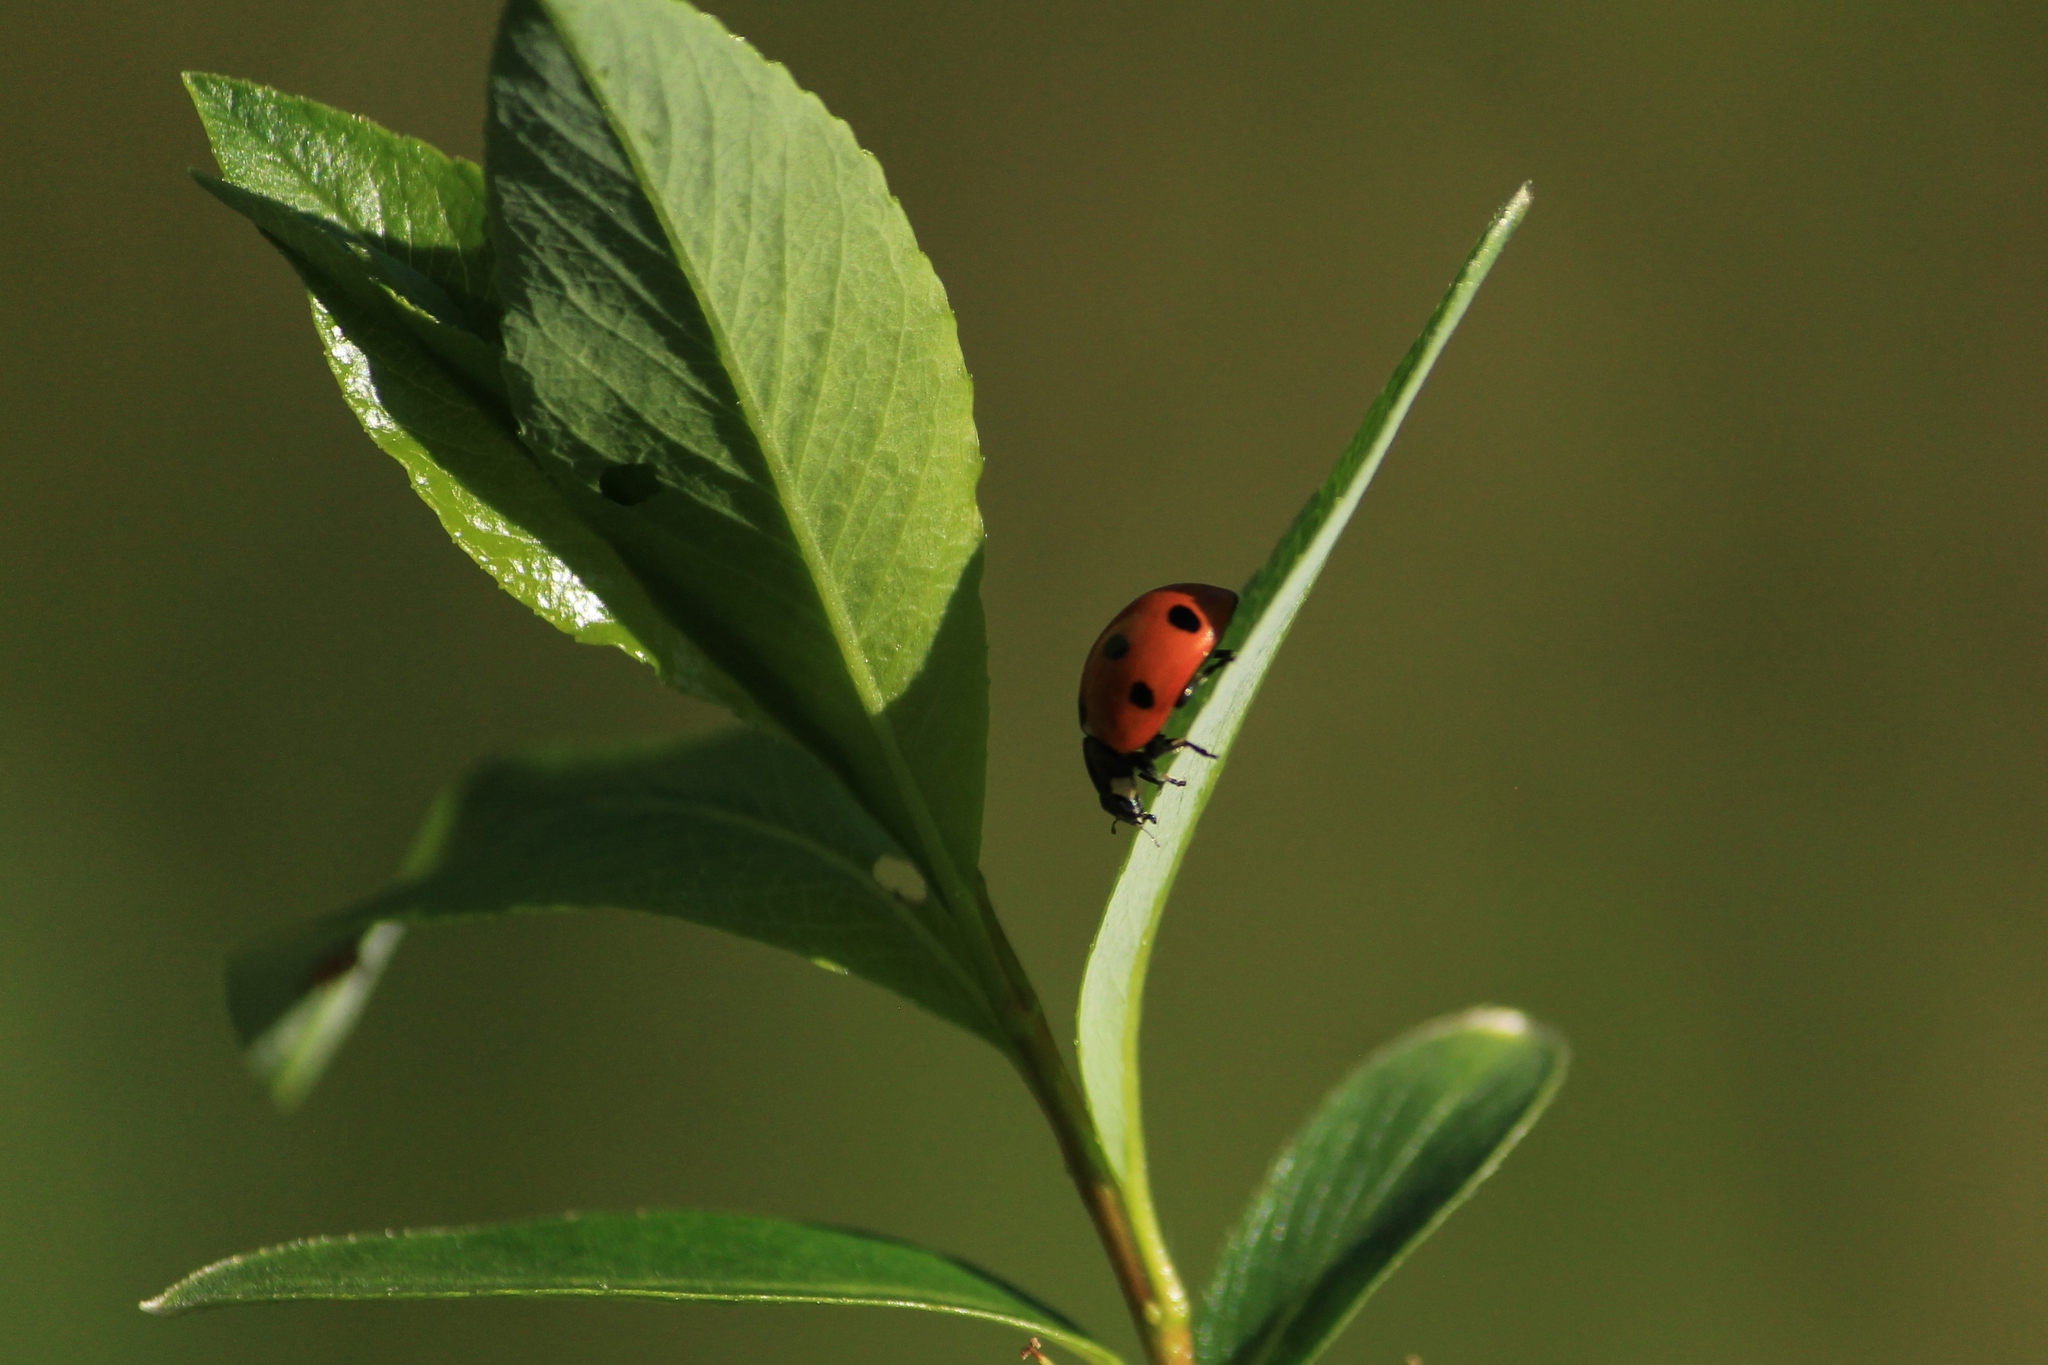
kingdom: Animalia
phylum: Arthropoda
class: Insecta
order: Coleoptera
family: Coccinellidae
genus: Coccinella
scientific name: Coccinella septempunctata
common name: Sevenspotted lady beetle
